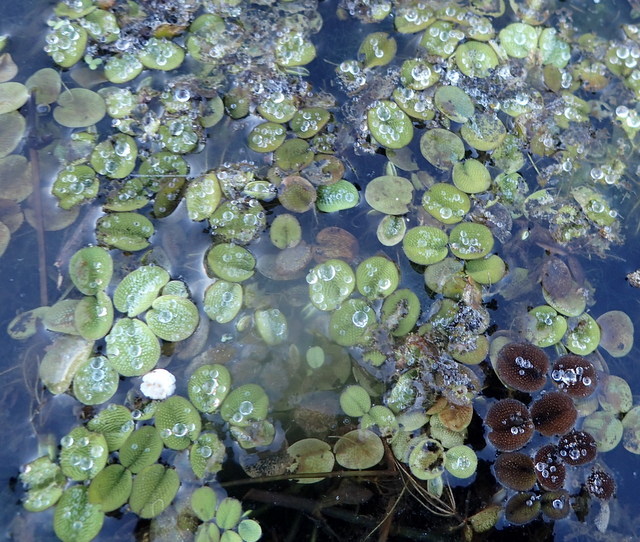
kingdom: Plantae
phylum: Tracheophyta
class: Polypodiopsida
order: Salviniales
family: Salviniaceae
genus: Salvinia
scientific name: Salvinia minima
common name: Water spangles
